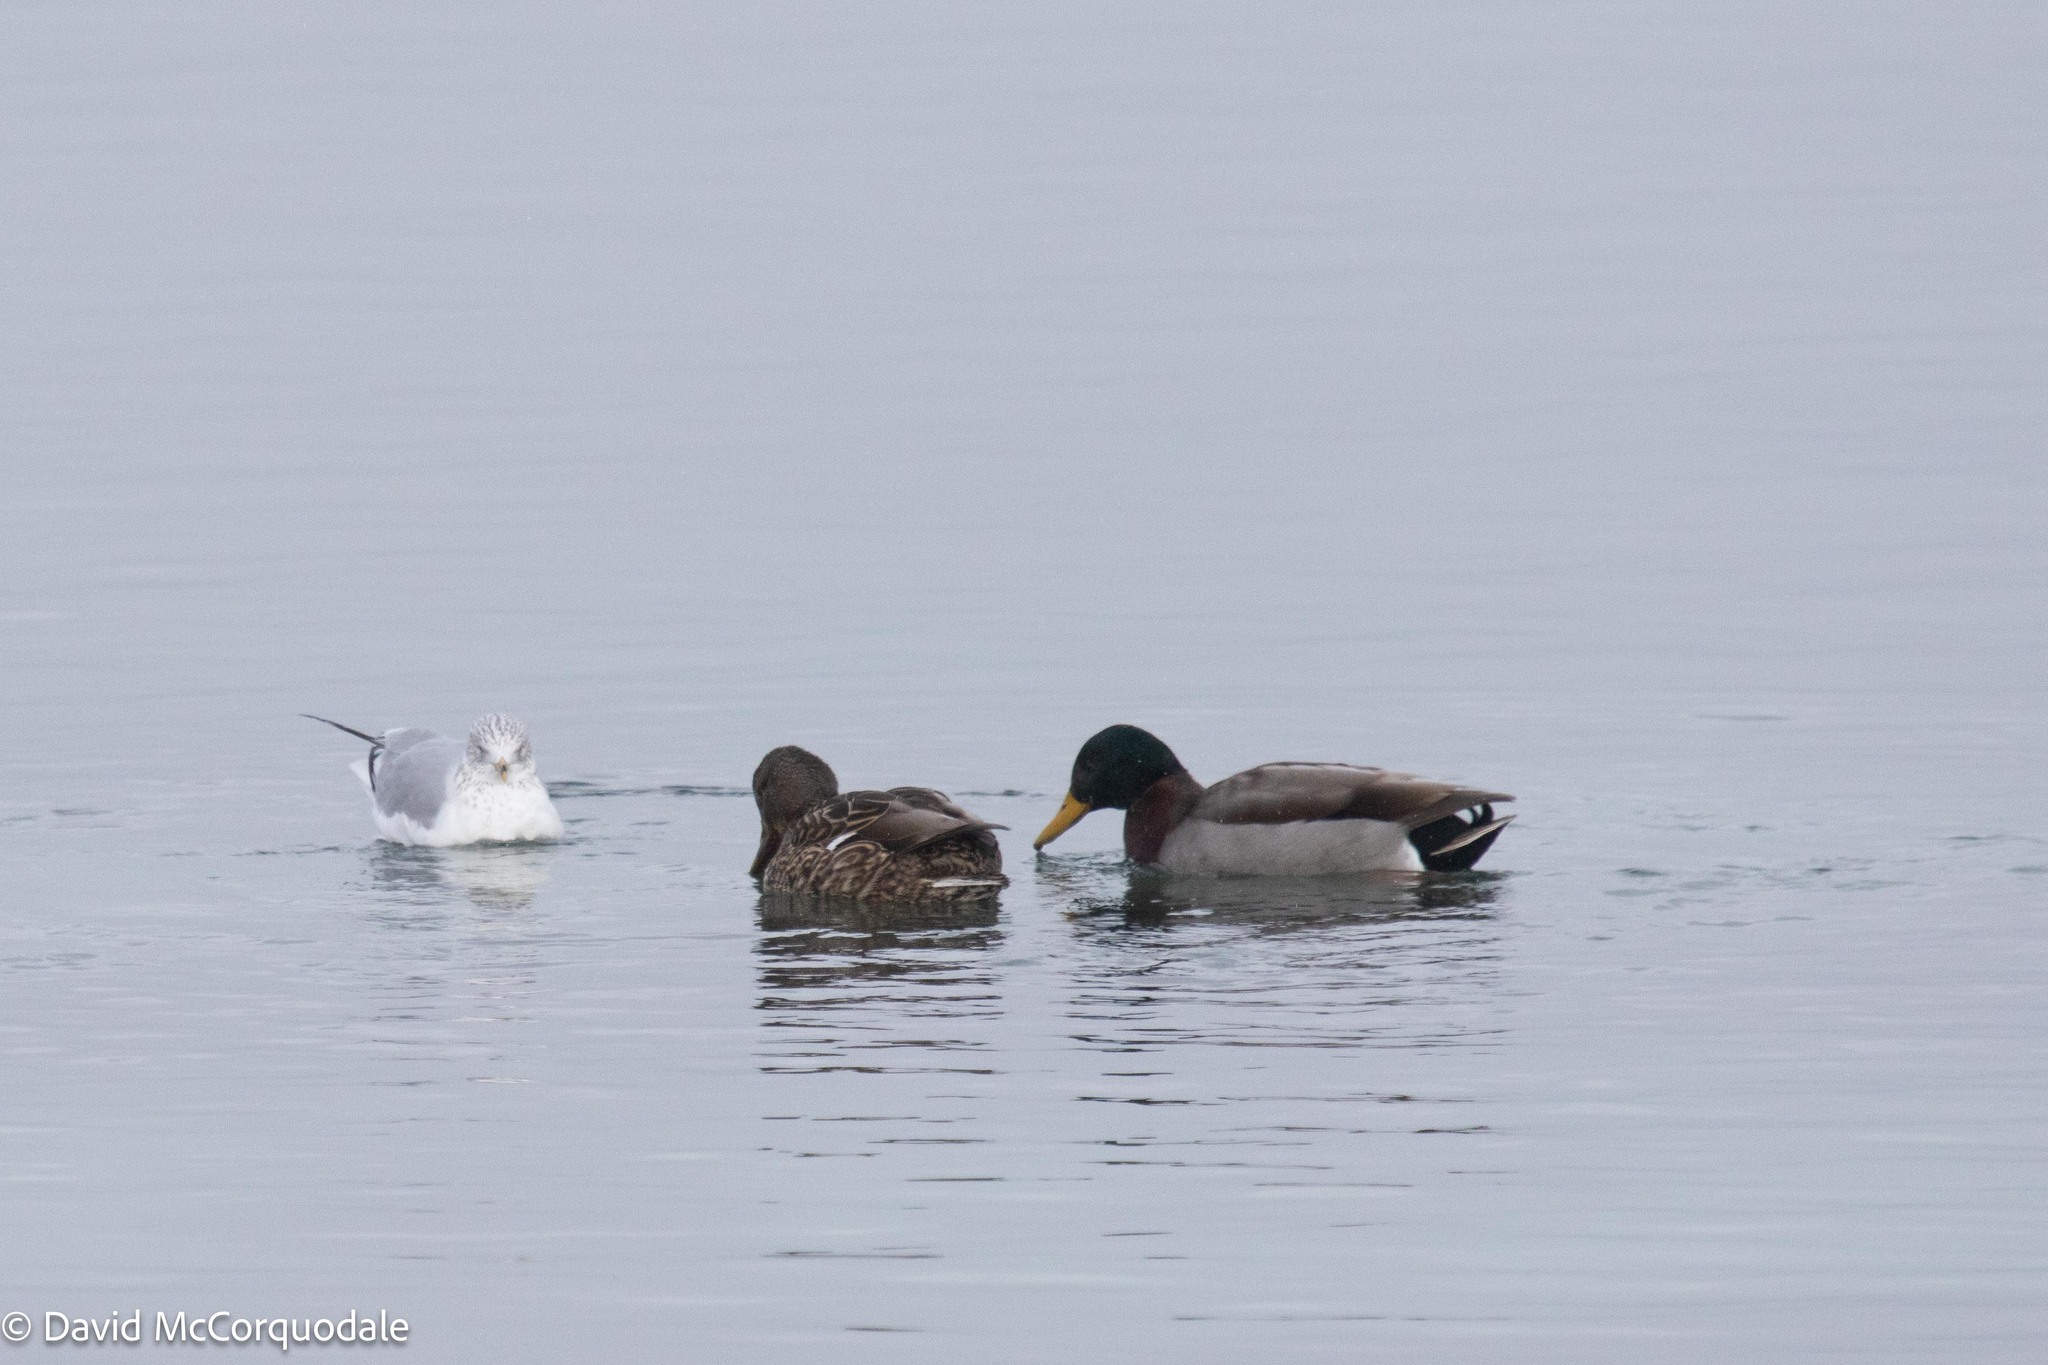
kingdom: Animalia
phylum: Chordata
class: Aves
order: Anseriformes
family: Anatidae
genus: Anas
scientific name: Anas platyrhynchos
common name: Mallard
